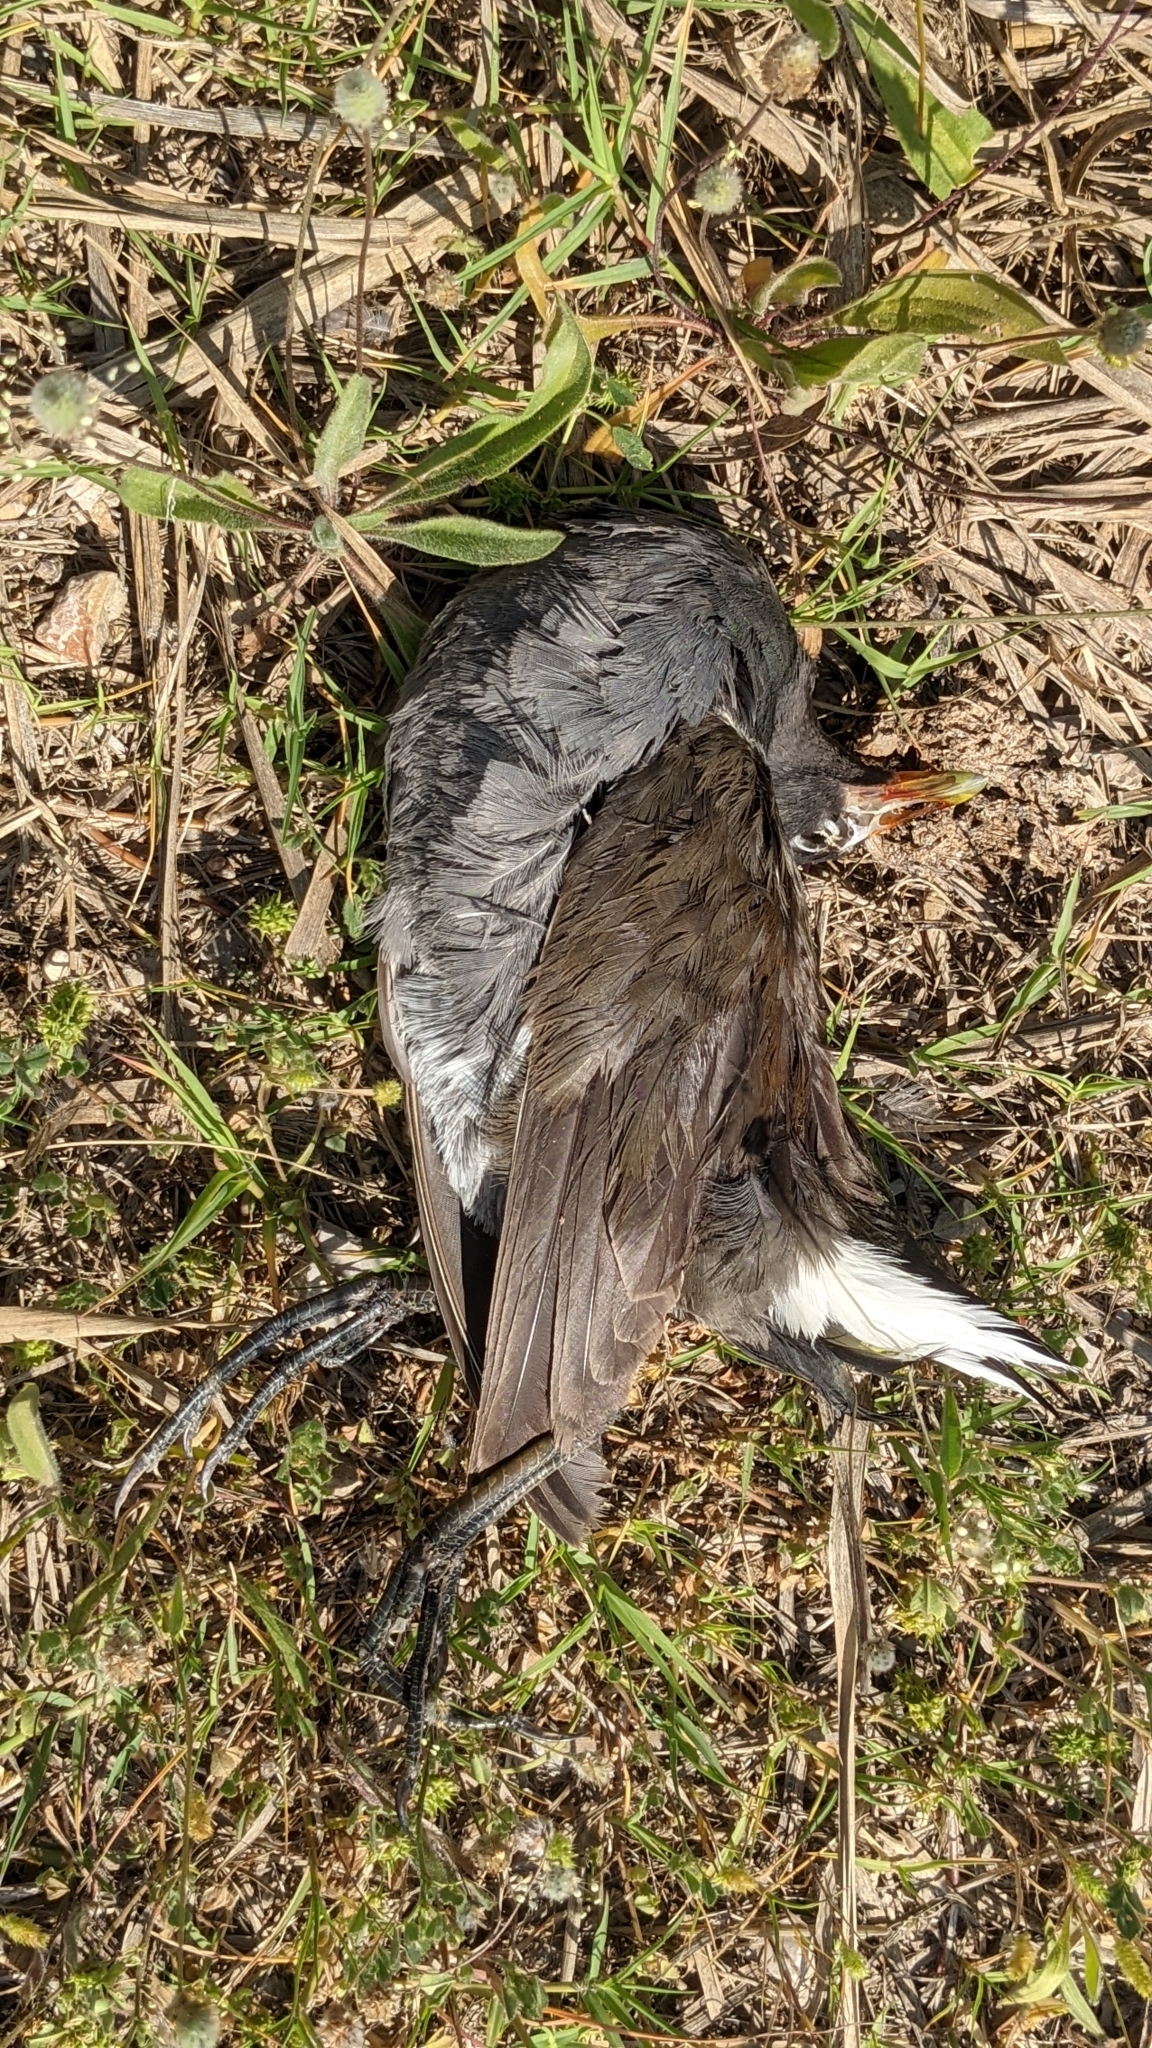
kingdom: Animalia
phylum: Chordata
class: Aves
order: Gruiformes
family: Rallidae
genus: Gallinula
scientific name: Gallinula chloropus
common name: Common moorhen
